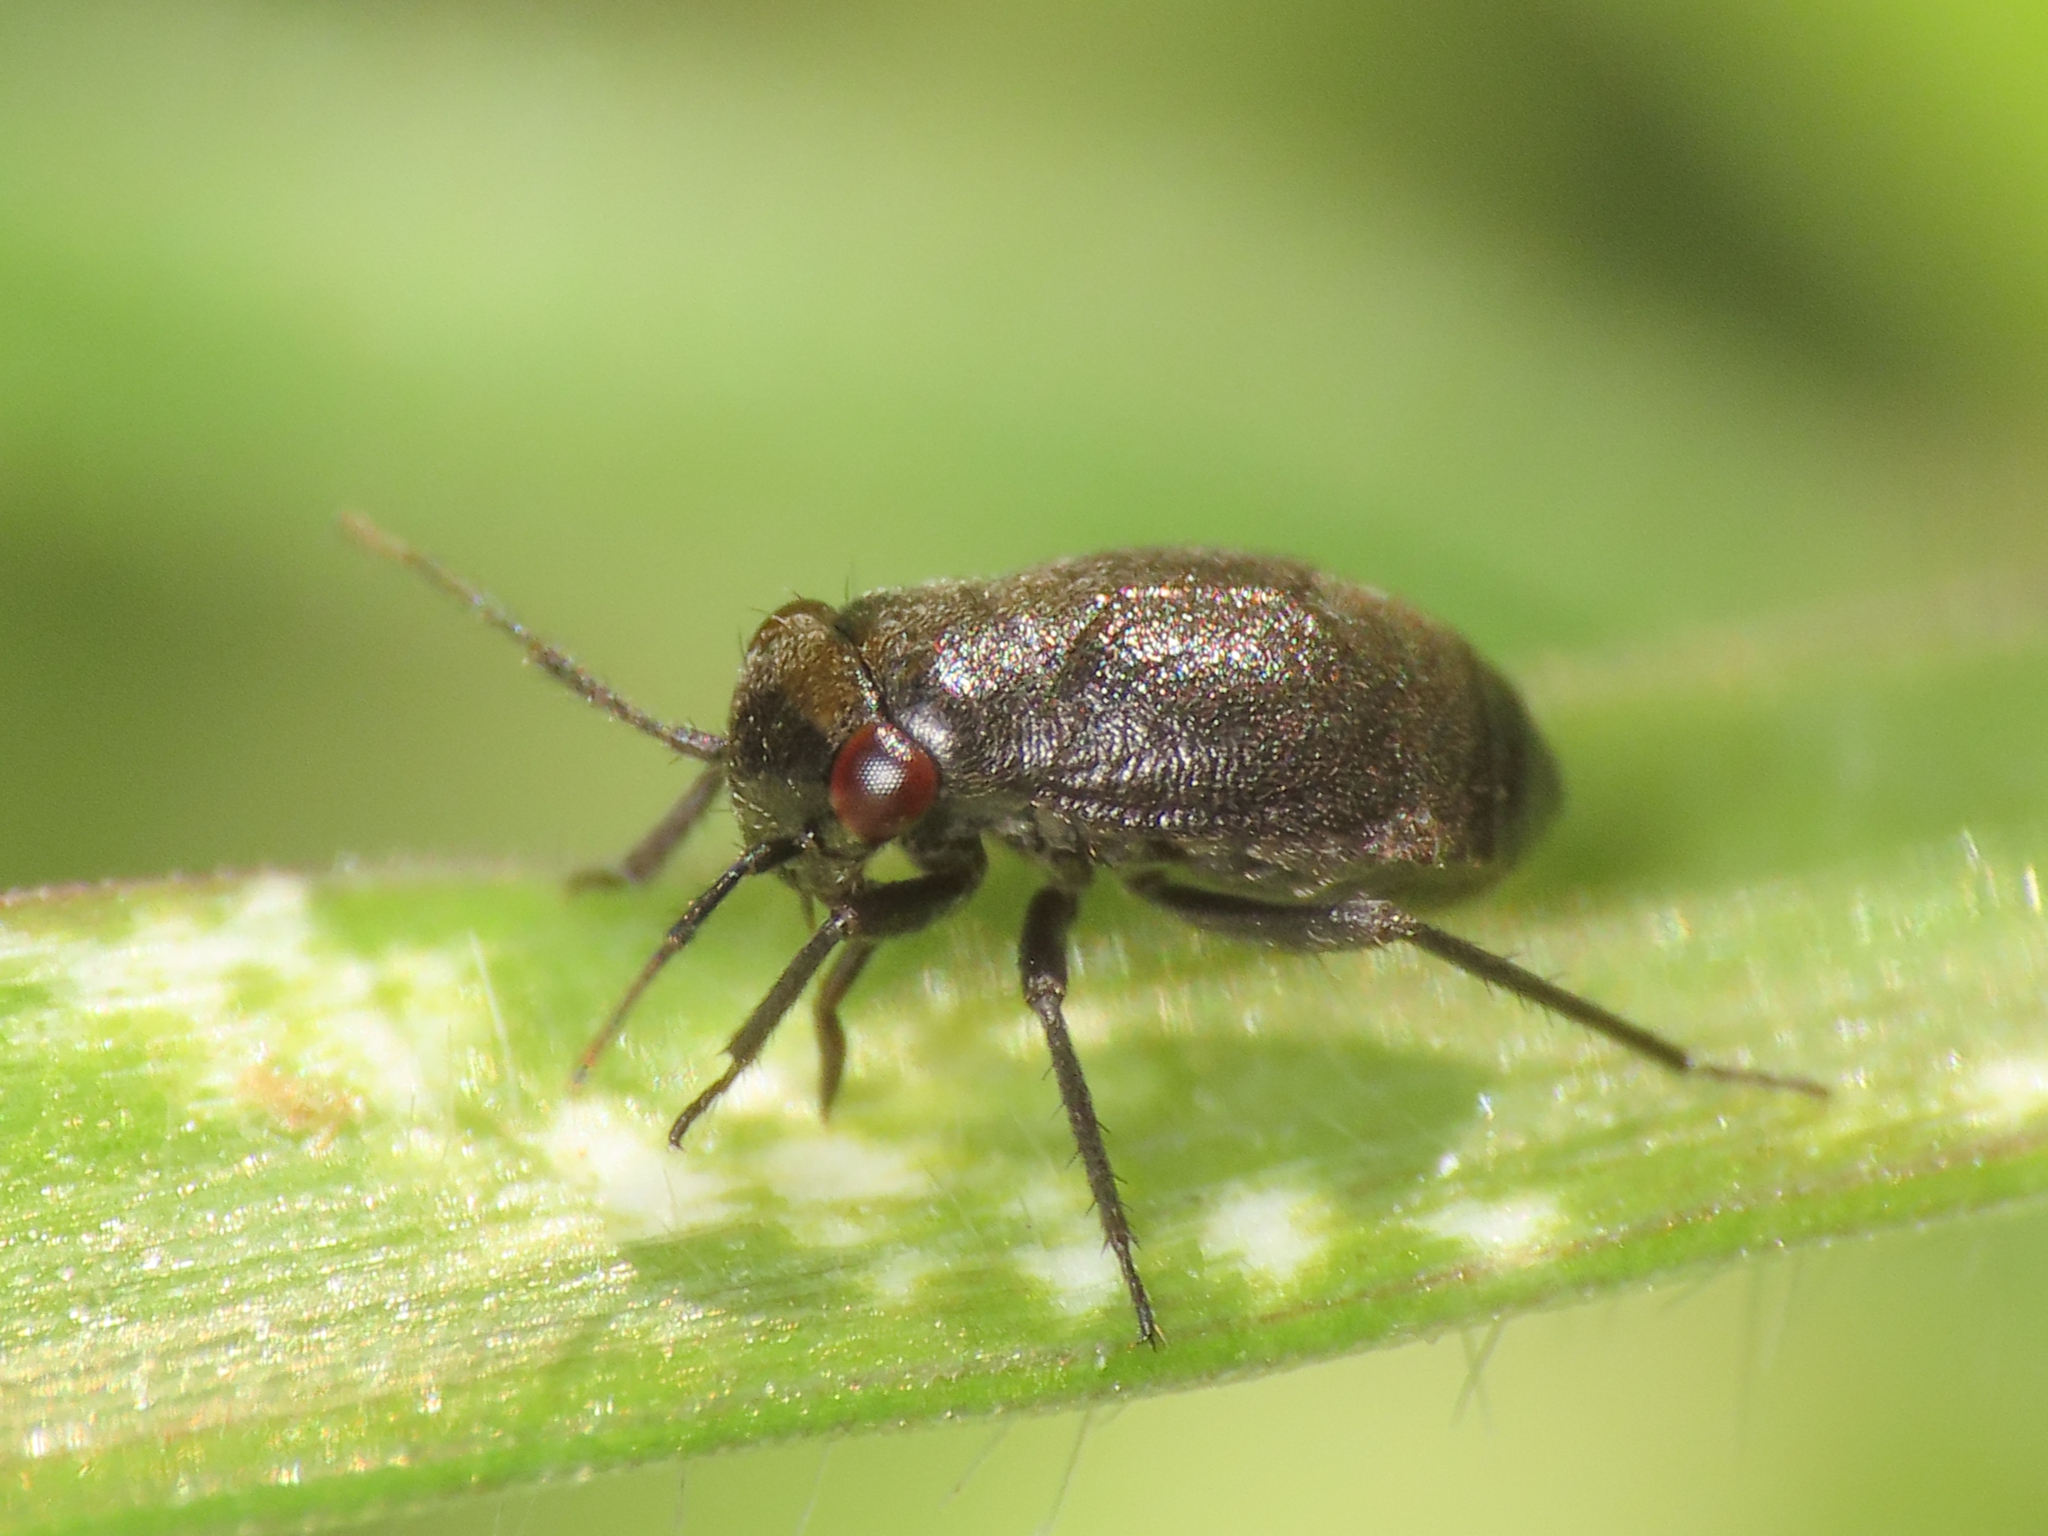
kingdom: Animalia
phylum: Arthropoda
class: Insecta
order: Hemiptera
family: Miridae
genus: Pachytomella
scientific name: Pachytomella passerinii
